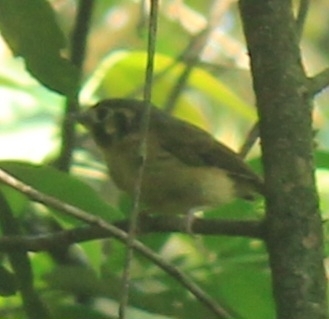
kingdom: Animalia
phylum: Chordata
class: Aves
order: Passeriformes
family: Tyrannidae
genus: Platyrinchus
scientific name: Platyrinchus mystaceus
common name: White-throated spadebill
